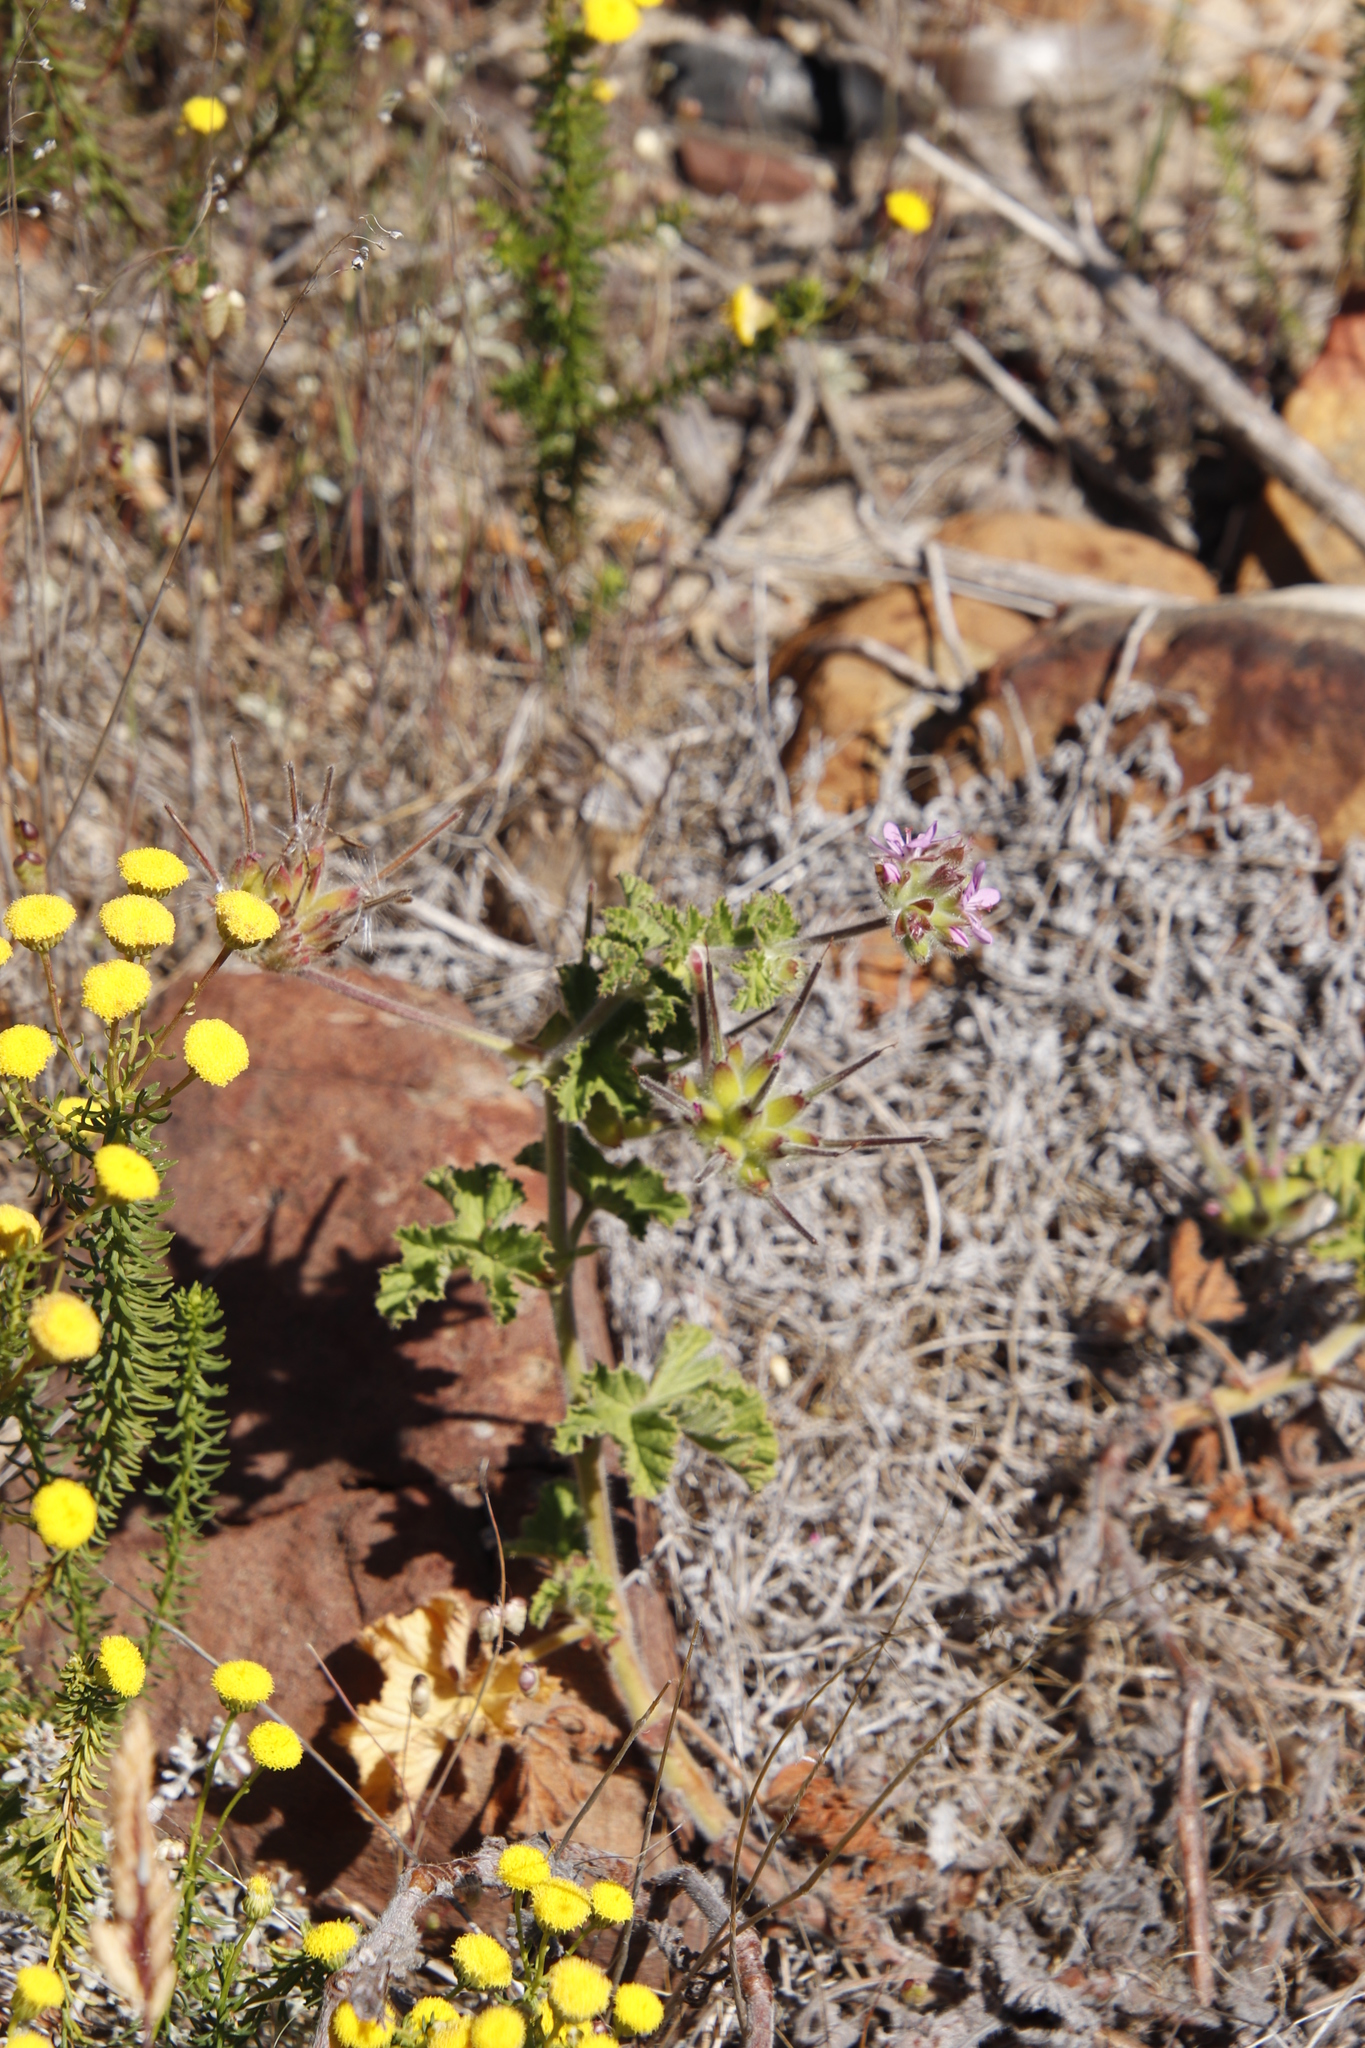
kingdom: Plantae
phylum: Tracheophyta
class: Magnoliopsida
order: Geraniales
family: Geraniaceae
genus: Pelargonium
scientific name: Pelargonium capitatum
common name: Rose scented geranium
